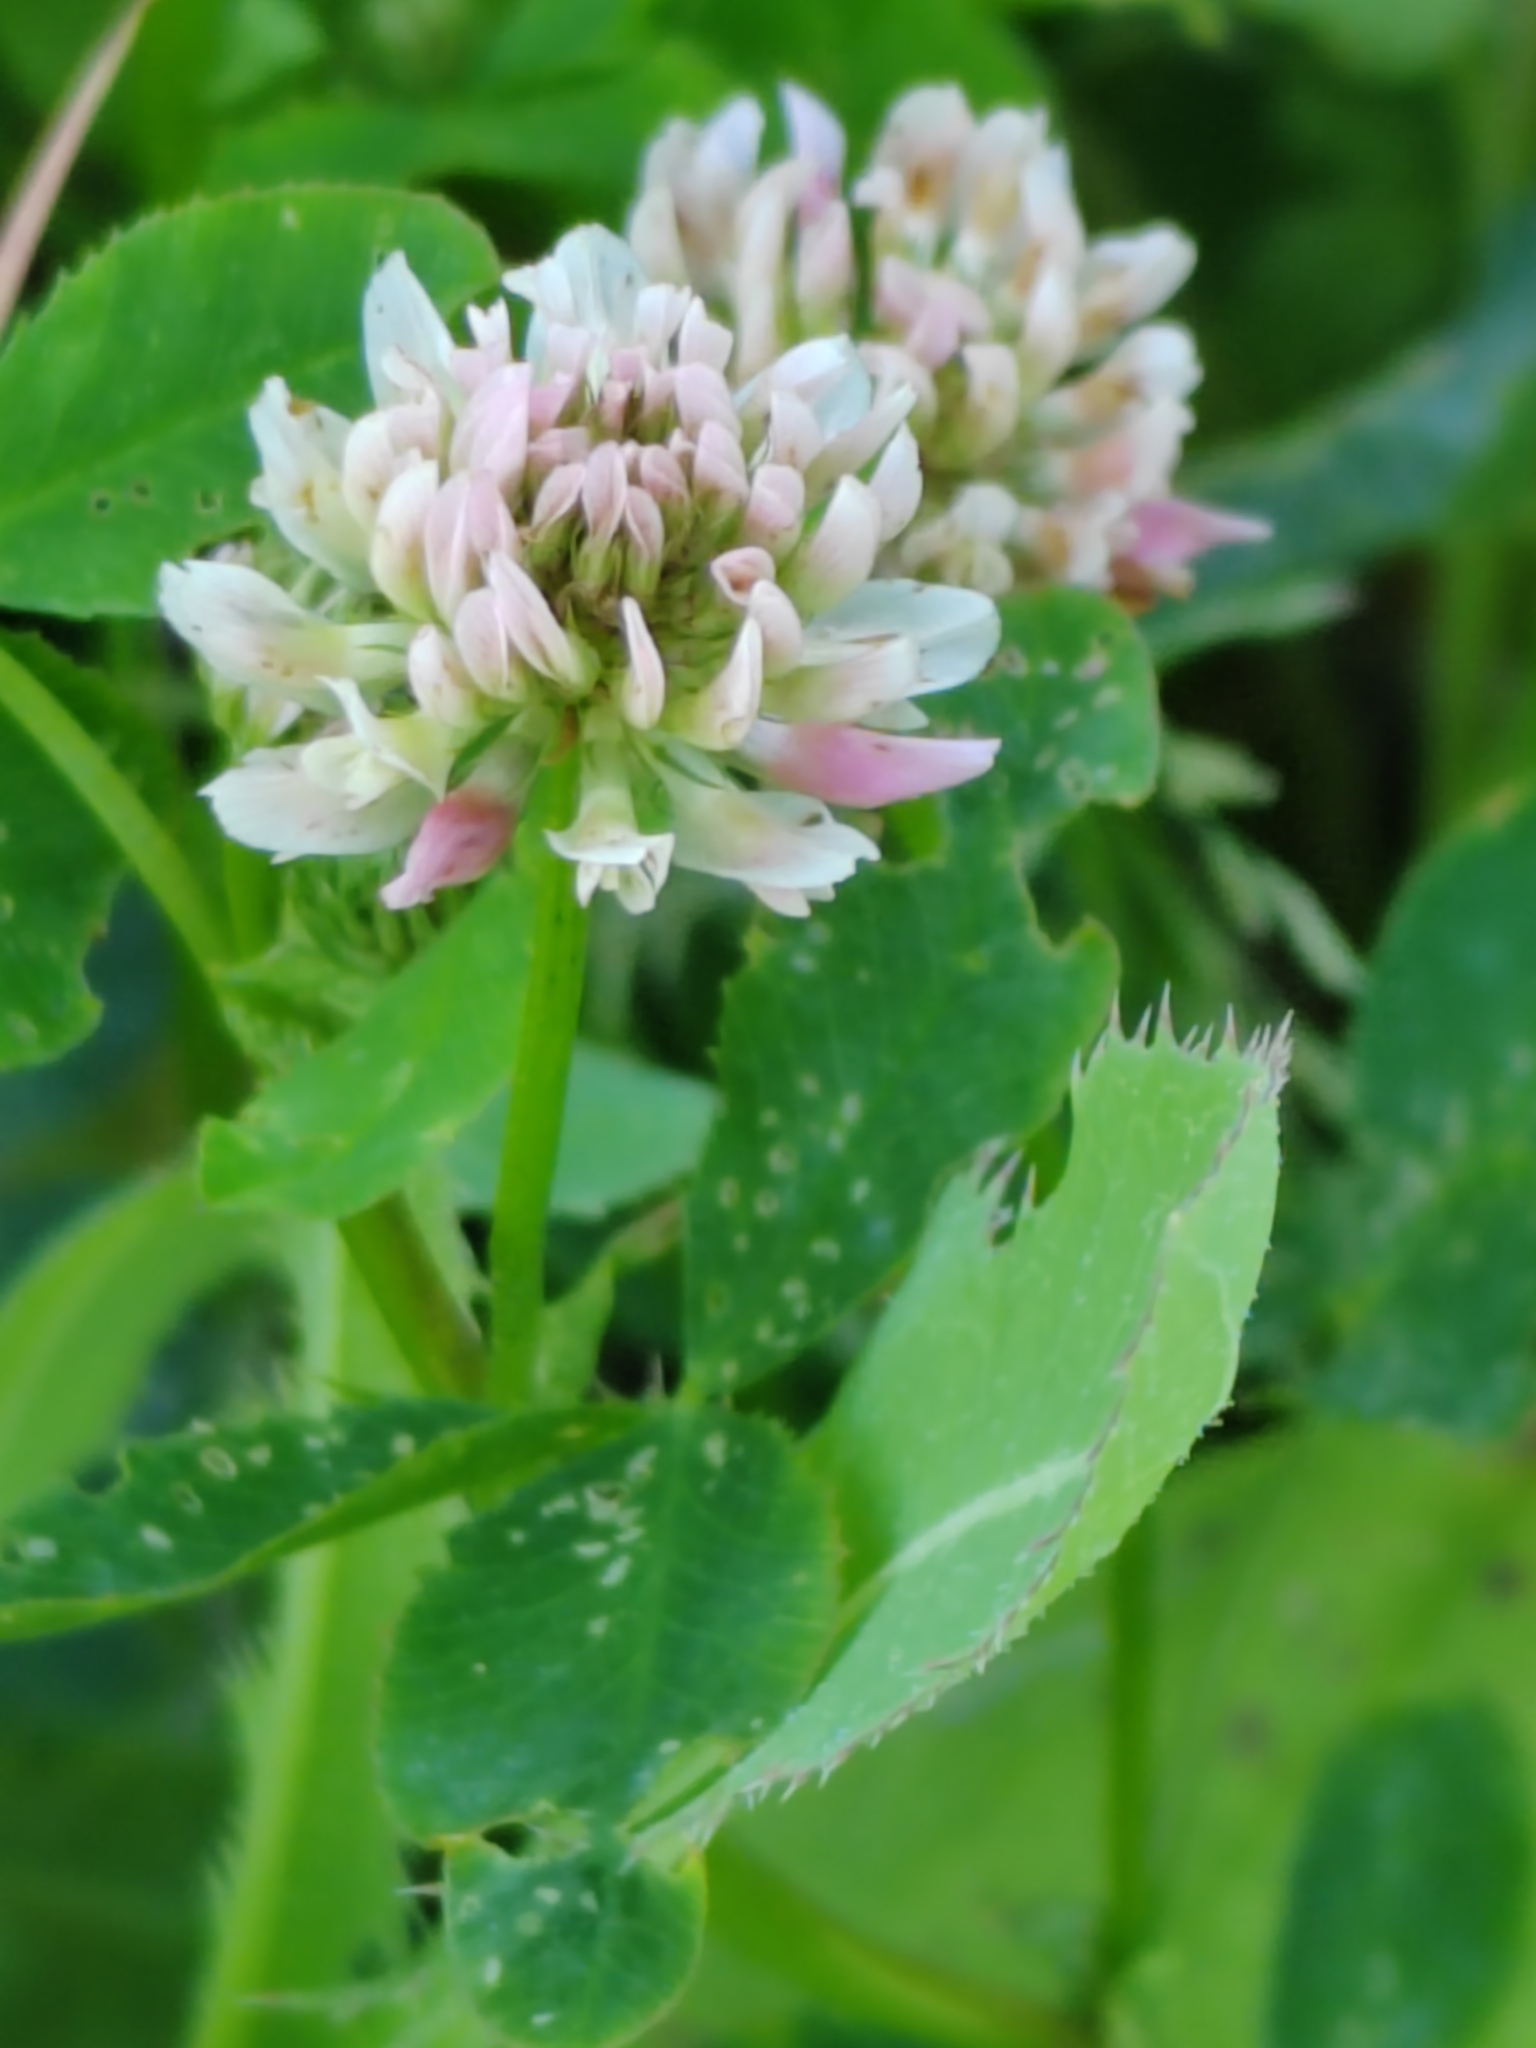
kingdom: Plantae
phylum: Tracheophyta
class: Magnoliopsida
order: Fabales
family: Fabaceae
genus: Trifolium
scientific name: Trifolium hybridum
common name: Alsike clover
